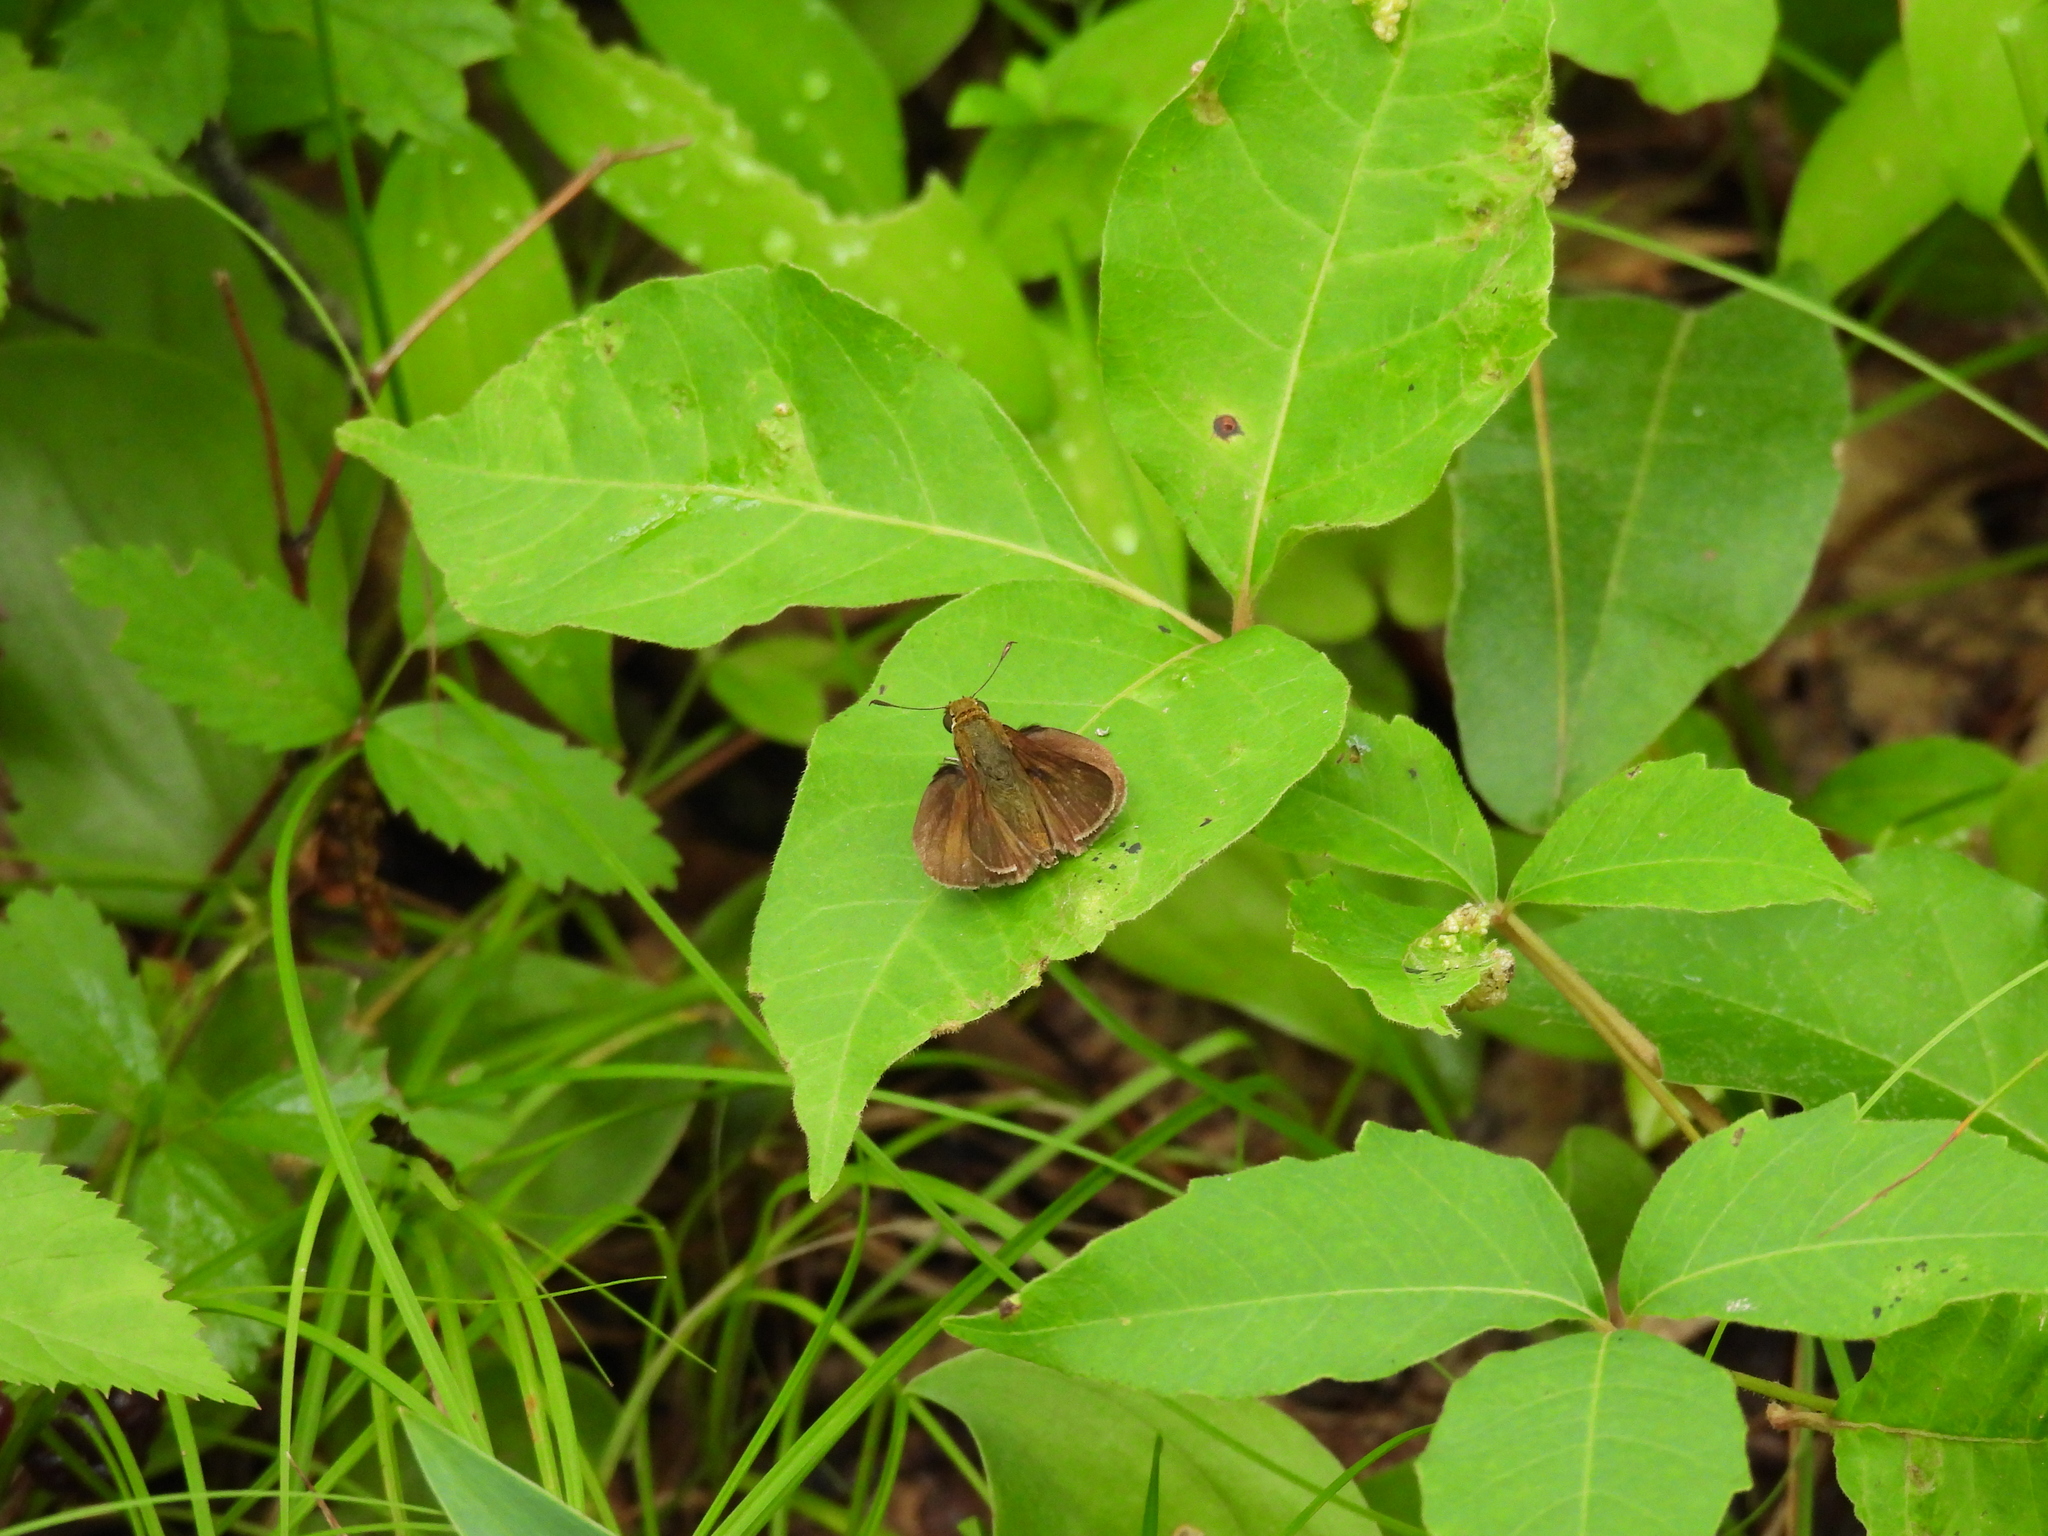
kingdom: Animalia
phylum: Arthropoda
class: Insecta
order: Lepidoptera
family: Hesperiidae
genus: Euphyes
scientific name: Euphyes vestris
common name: Dun skipper
